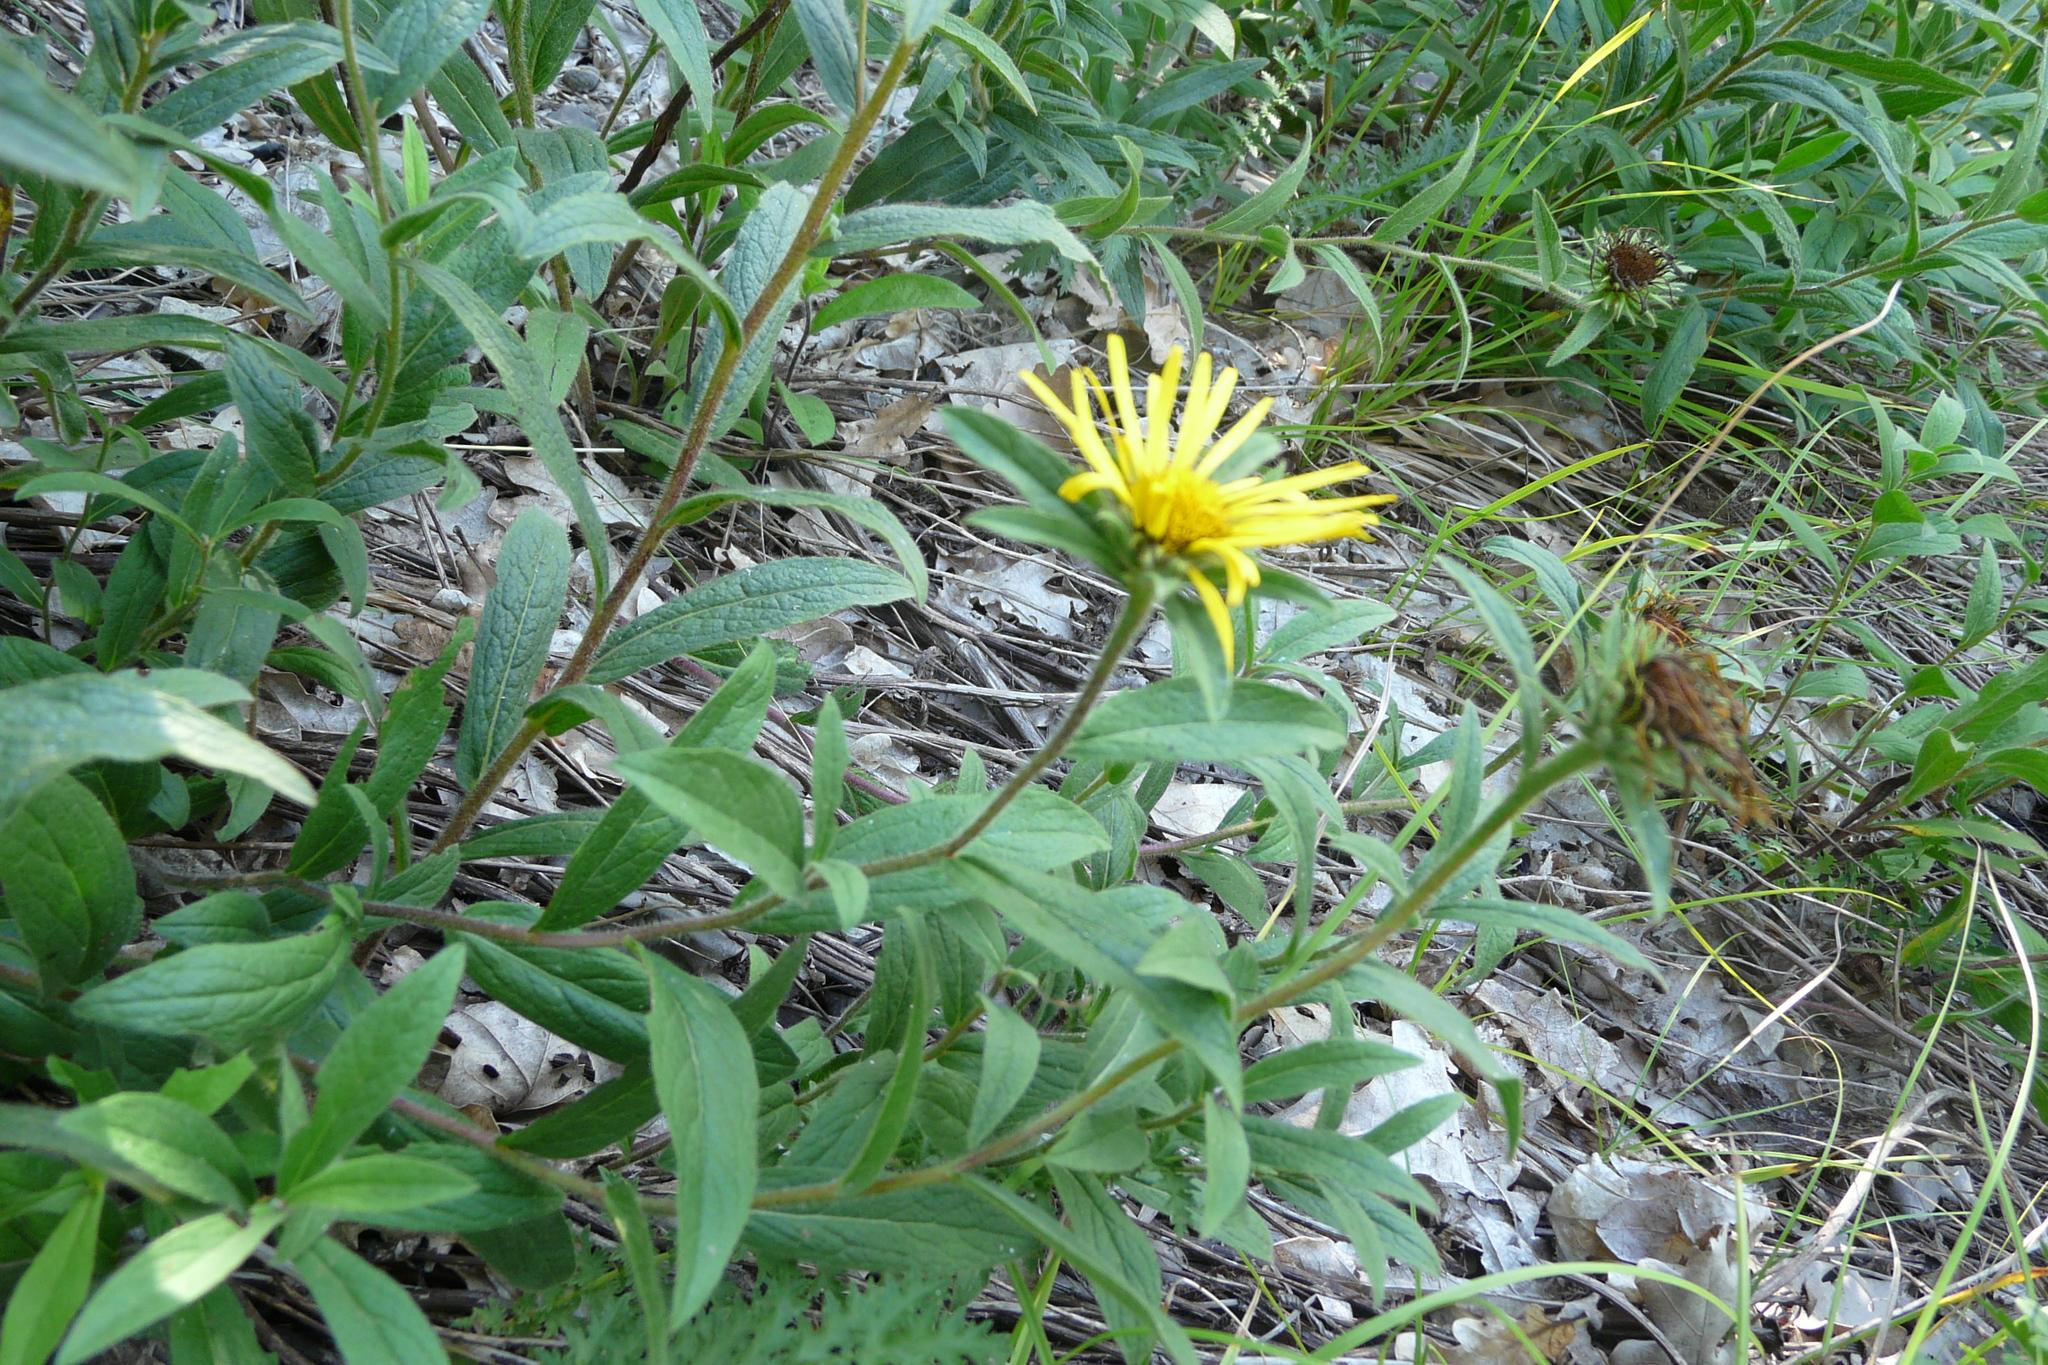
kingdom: Plantae
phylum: Tracheophyta
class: Magnoliopsida
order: Asterales
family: Asteraceae
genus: Pentanema
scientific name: Pentanema hirtum
